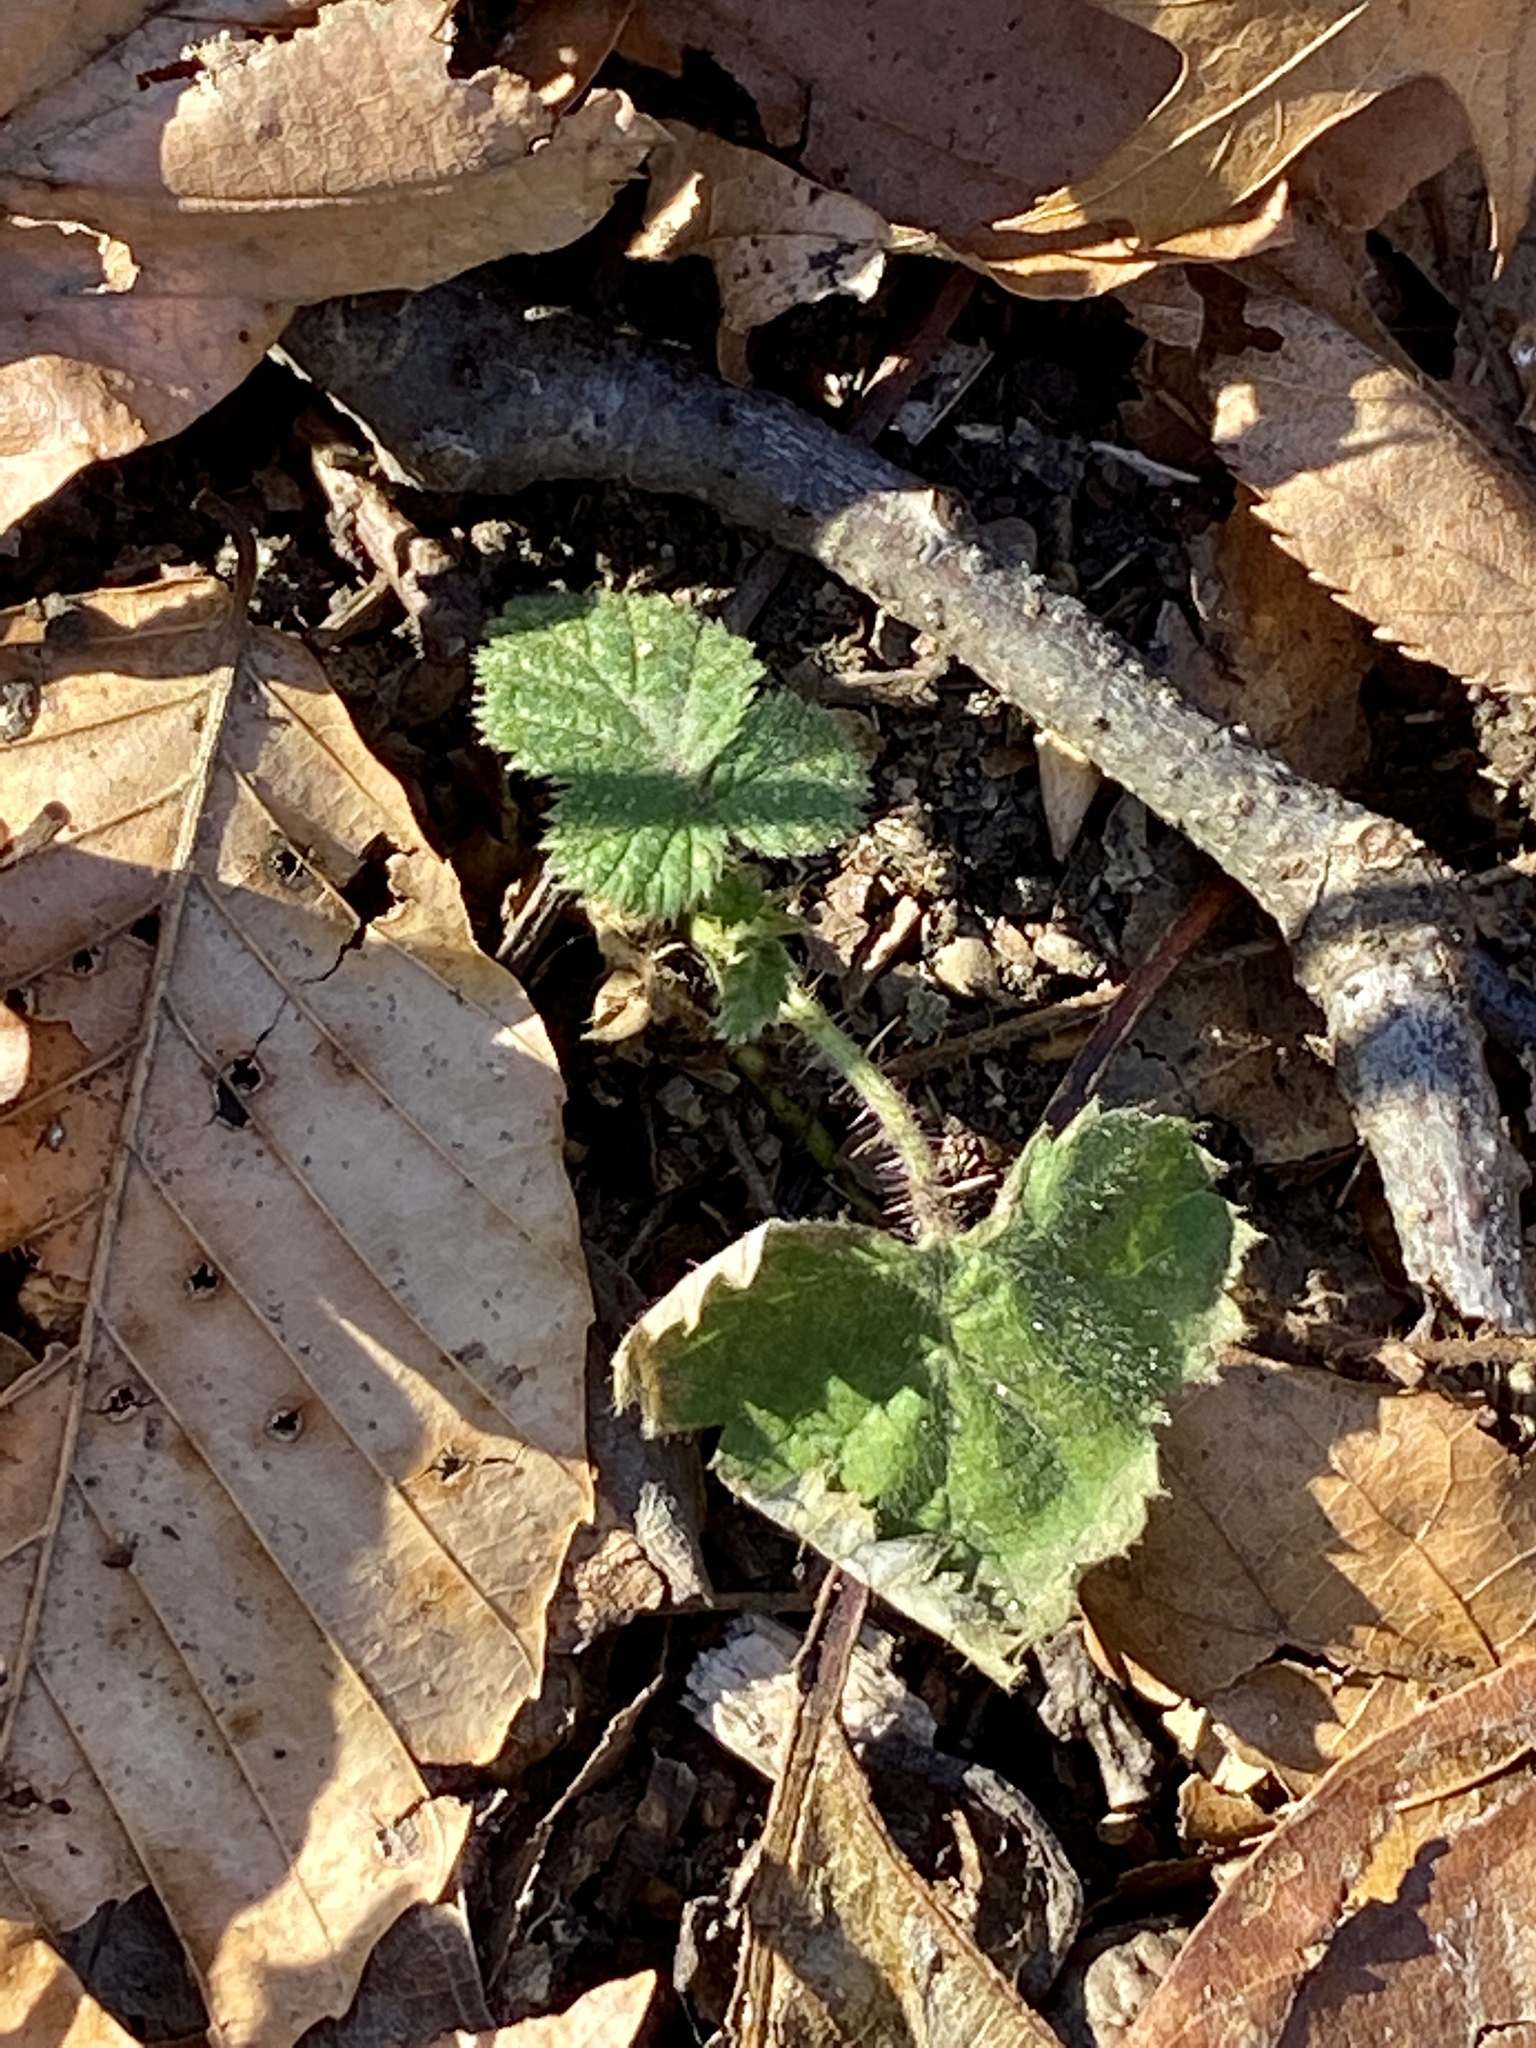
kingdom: Plantae
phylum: Tracheophyta
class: Magnoliopsida
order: Rosales
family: Rosaceae
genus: Rubus
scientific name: Rubus phoenicolasius
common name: Japanese wineberry
